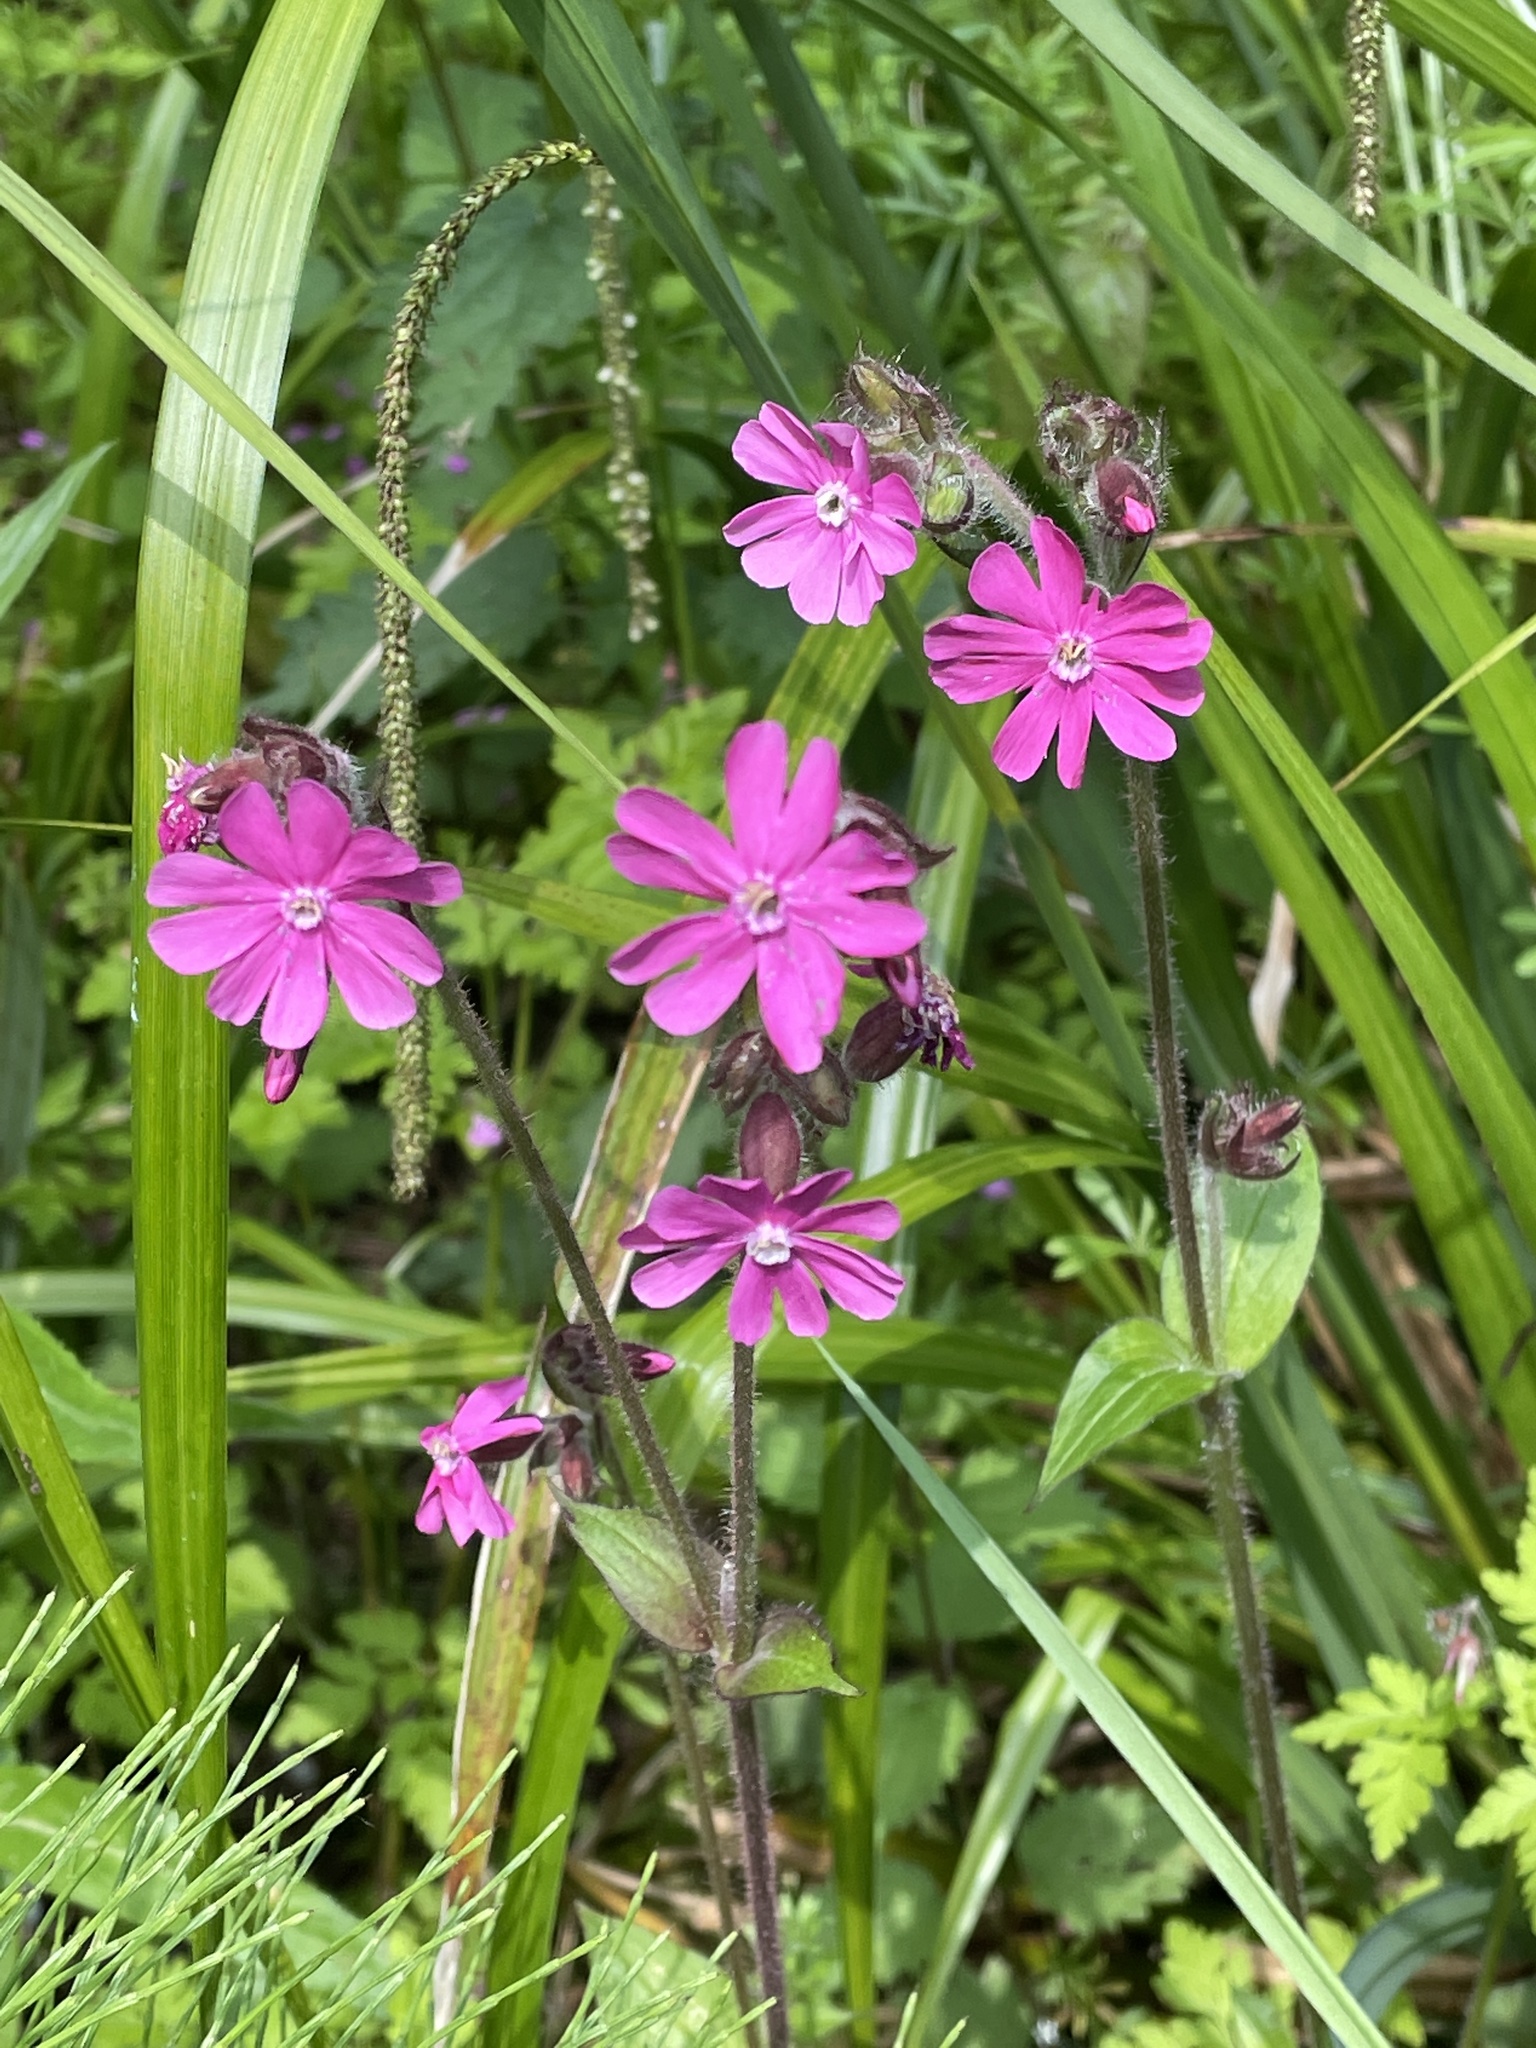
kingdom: Plantae
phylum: Tracheophyta
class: Magnoliopsida
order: Caryophyllales
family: Caryophyllaceae
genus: Silene
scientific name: Silene dioica
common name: Red campion
